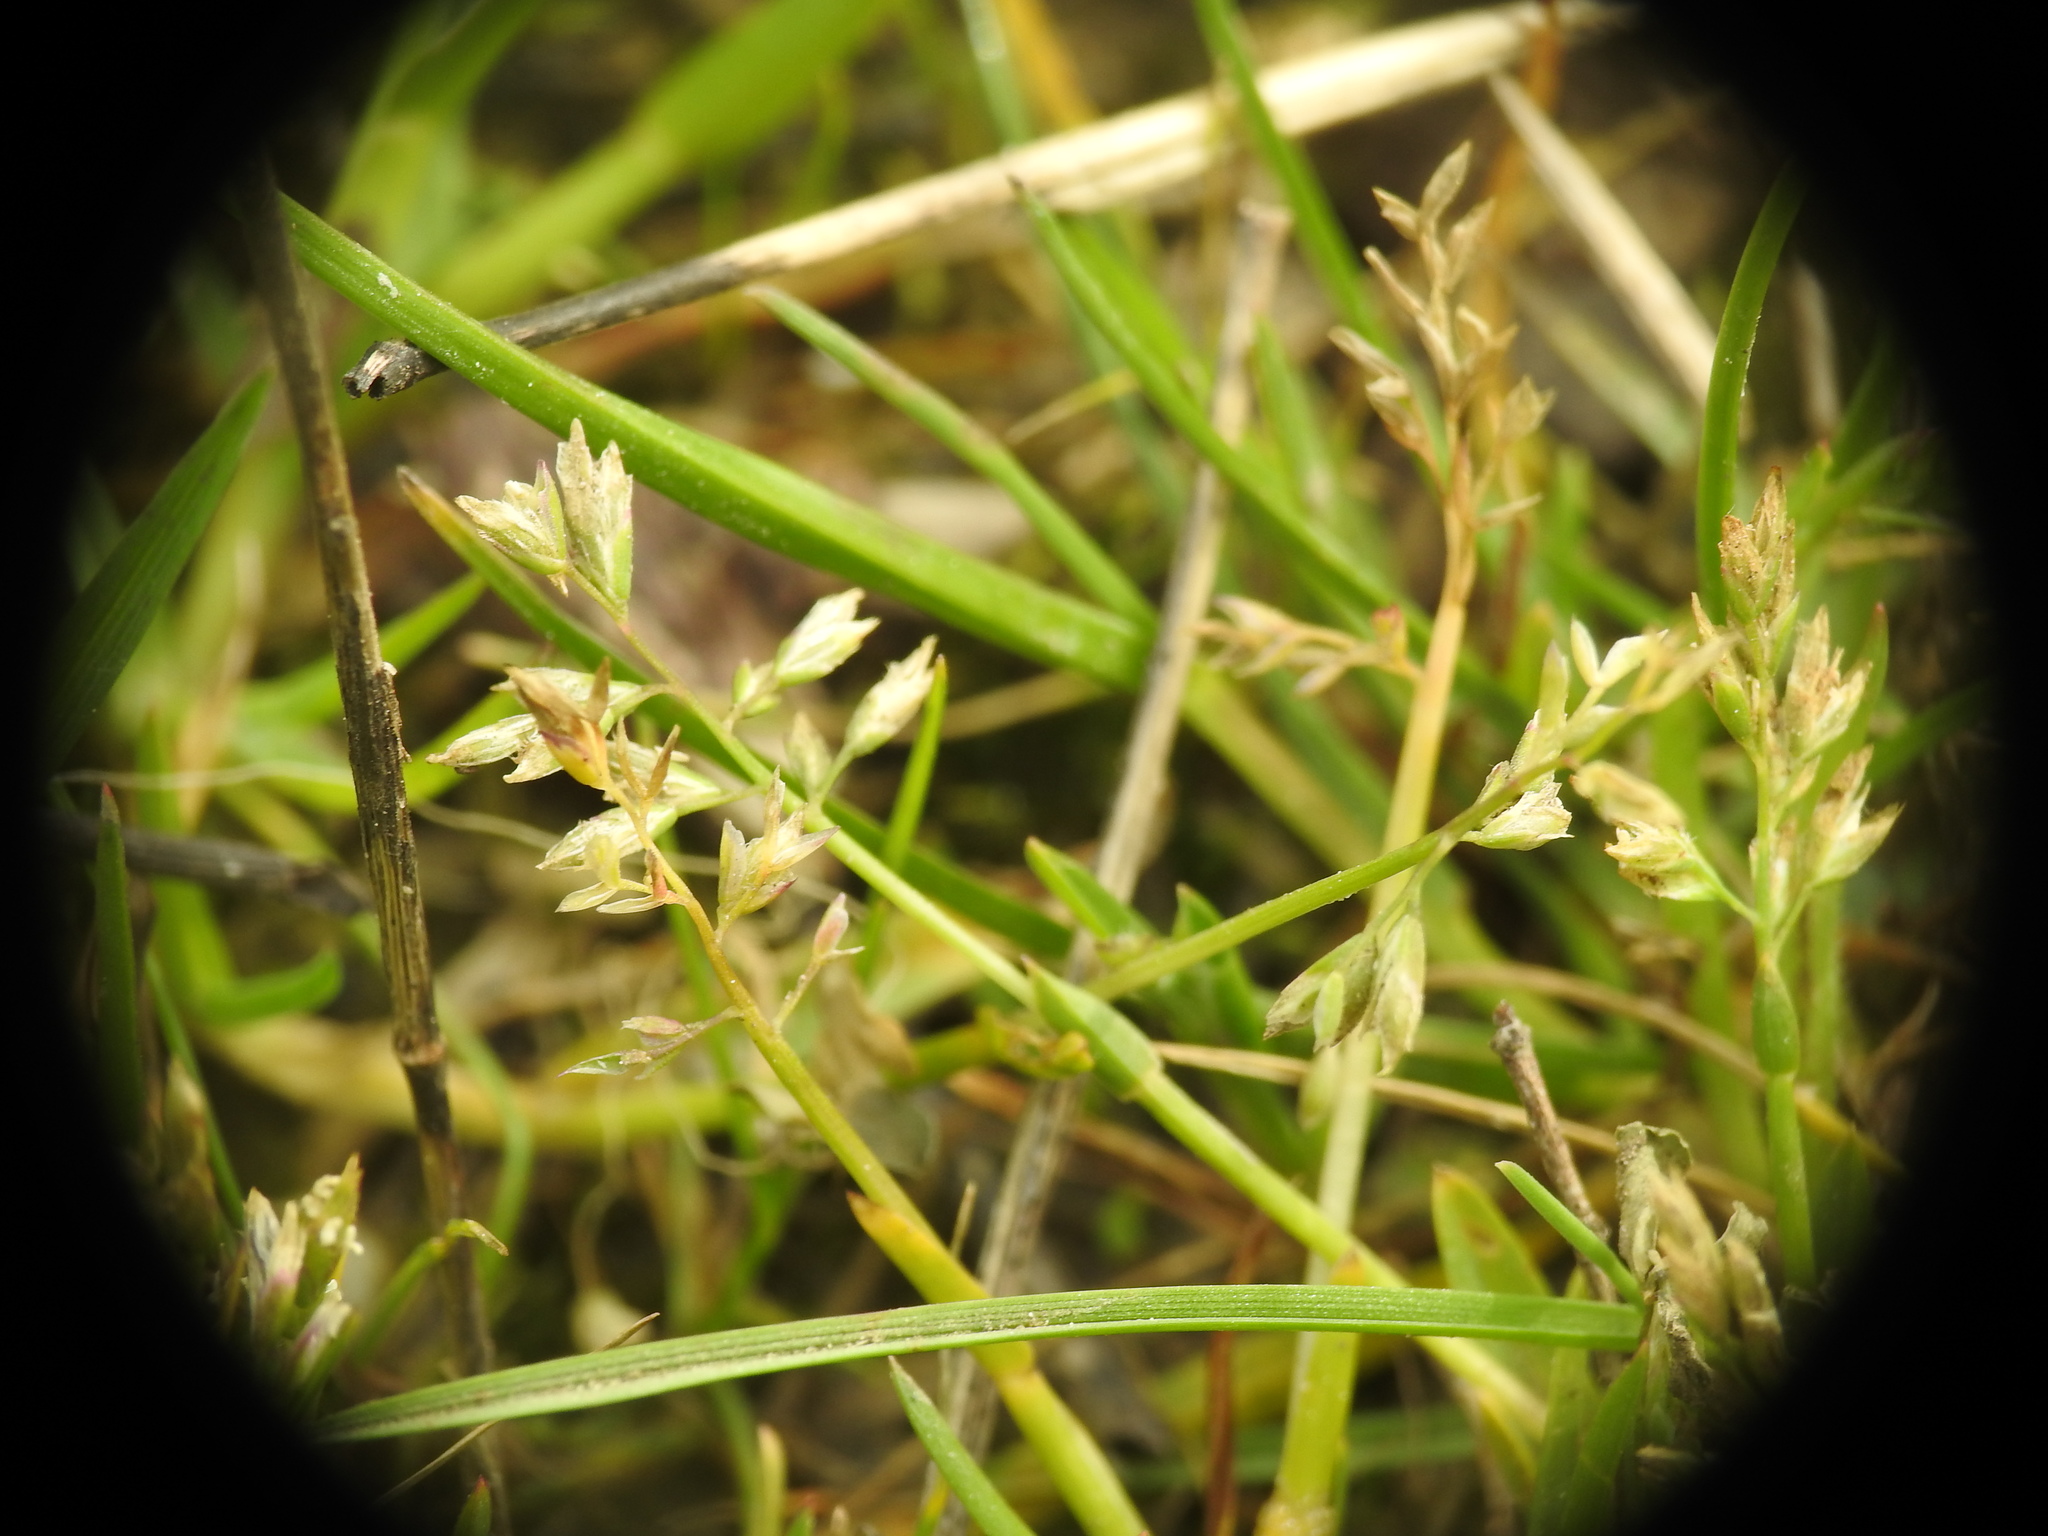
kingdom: Plantae
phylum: Tracheophyta
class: Liliopsida
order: Poales
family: Poaceae
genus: Poa
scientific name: Poa infirma
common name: Weak bluegrass
